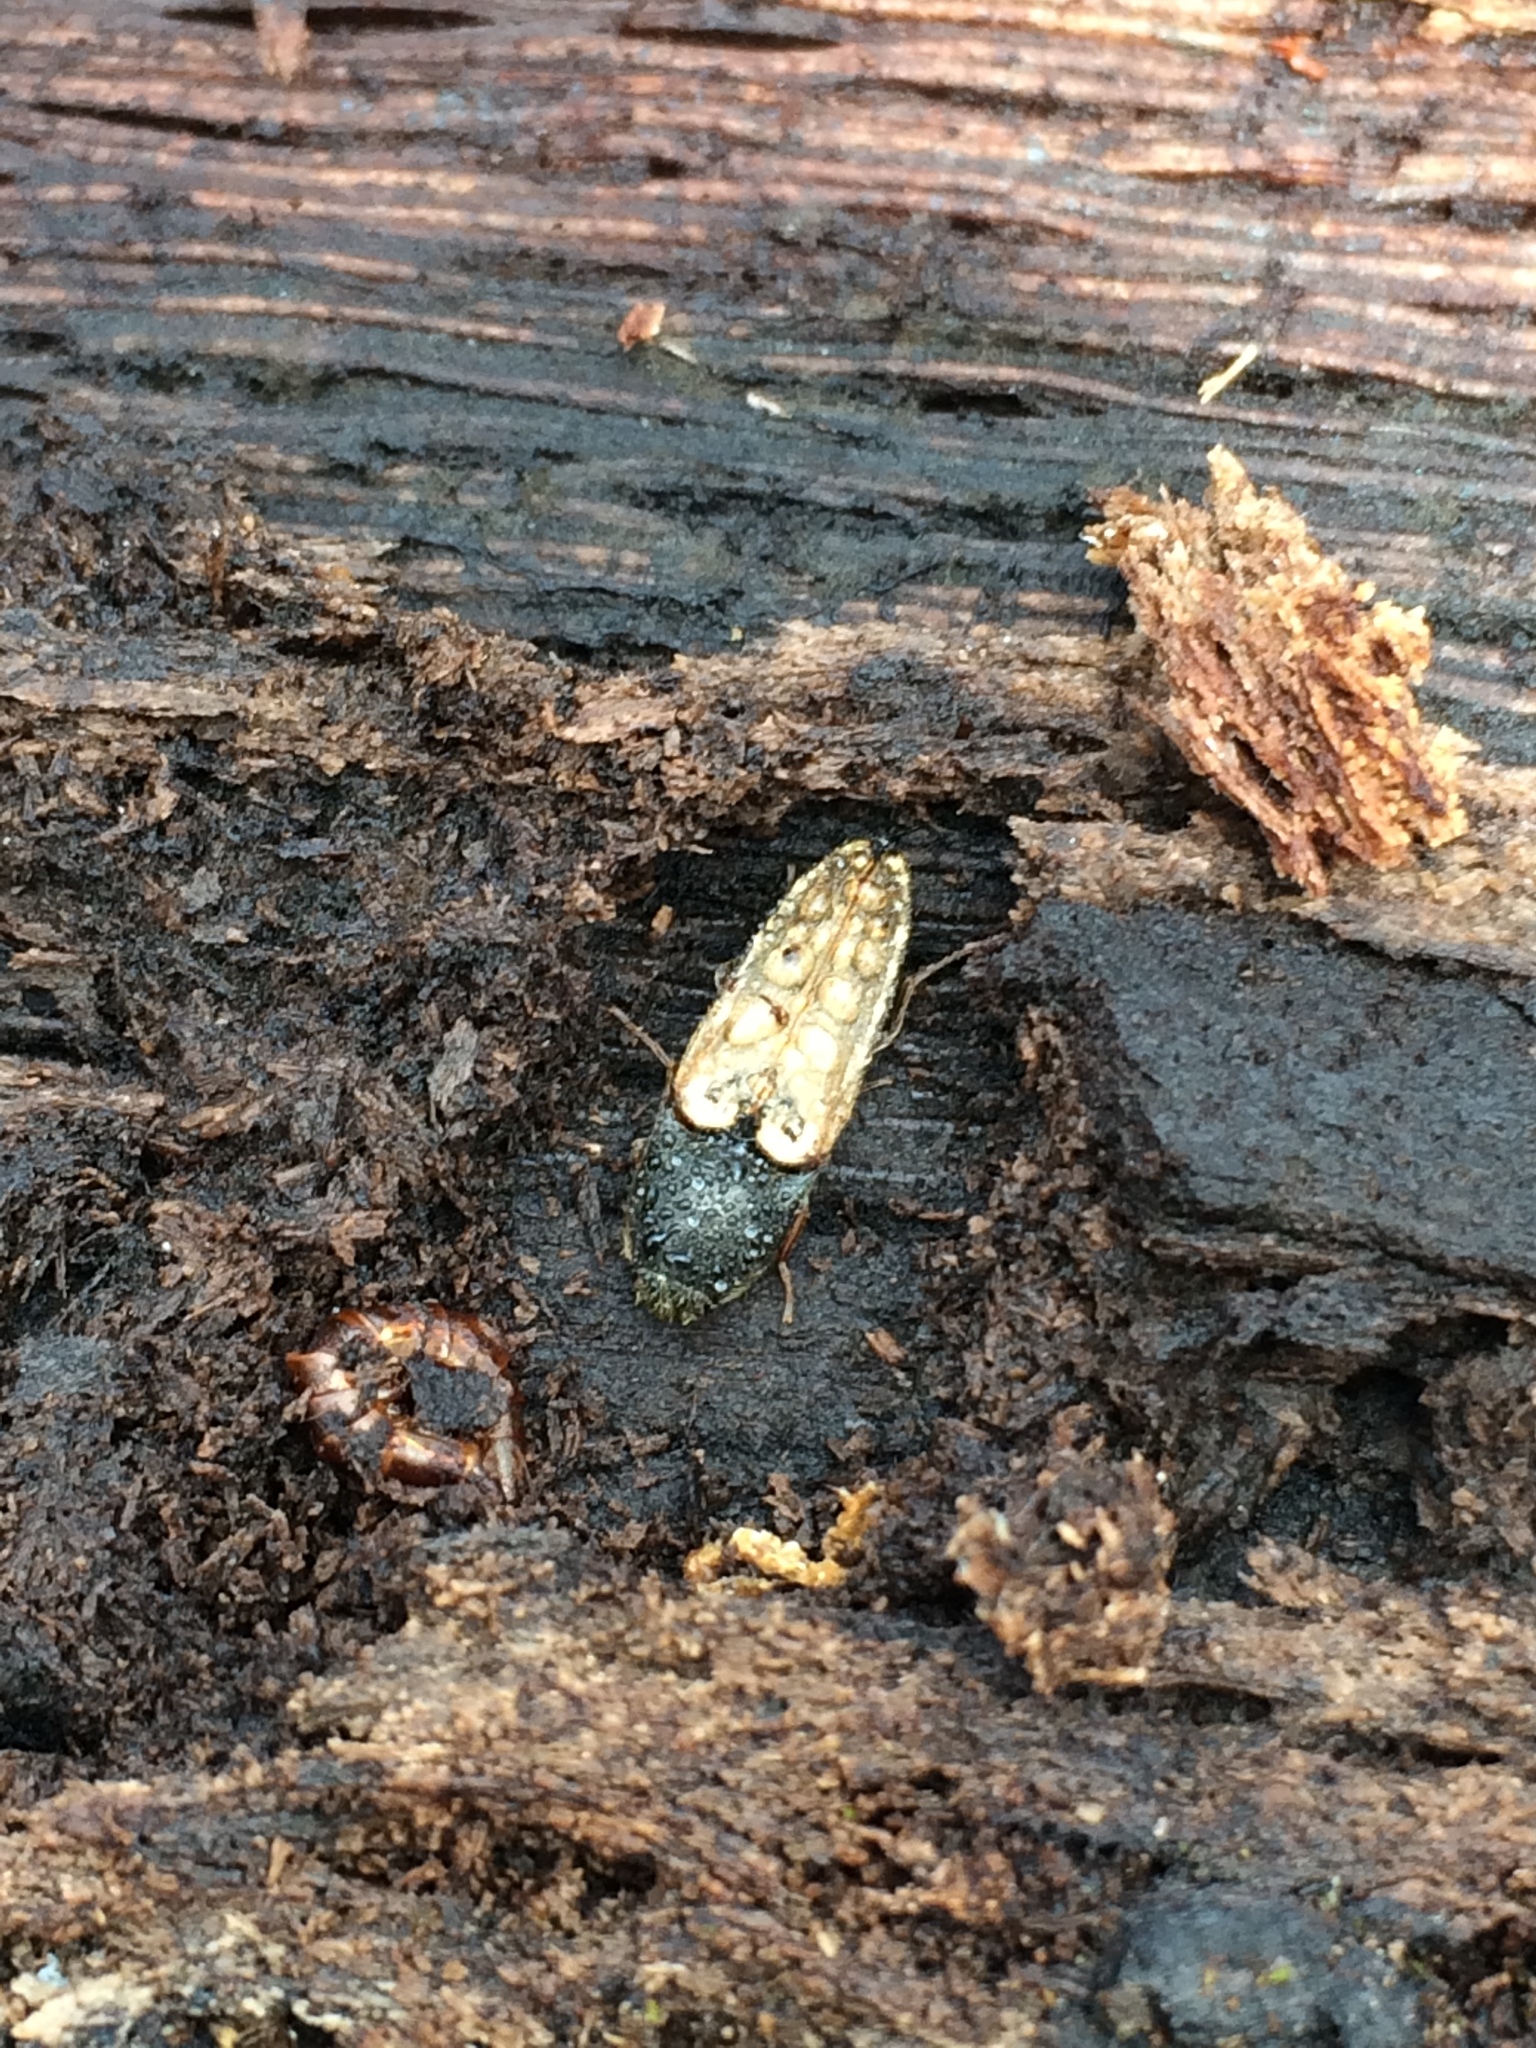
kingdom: Animalia
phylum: Arthropoda
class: Insecta
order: Coleoptera
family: Elateridae
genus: Ampedus
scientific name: Ampedus nigricollis
